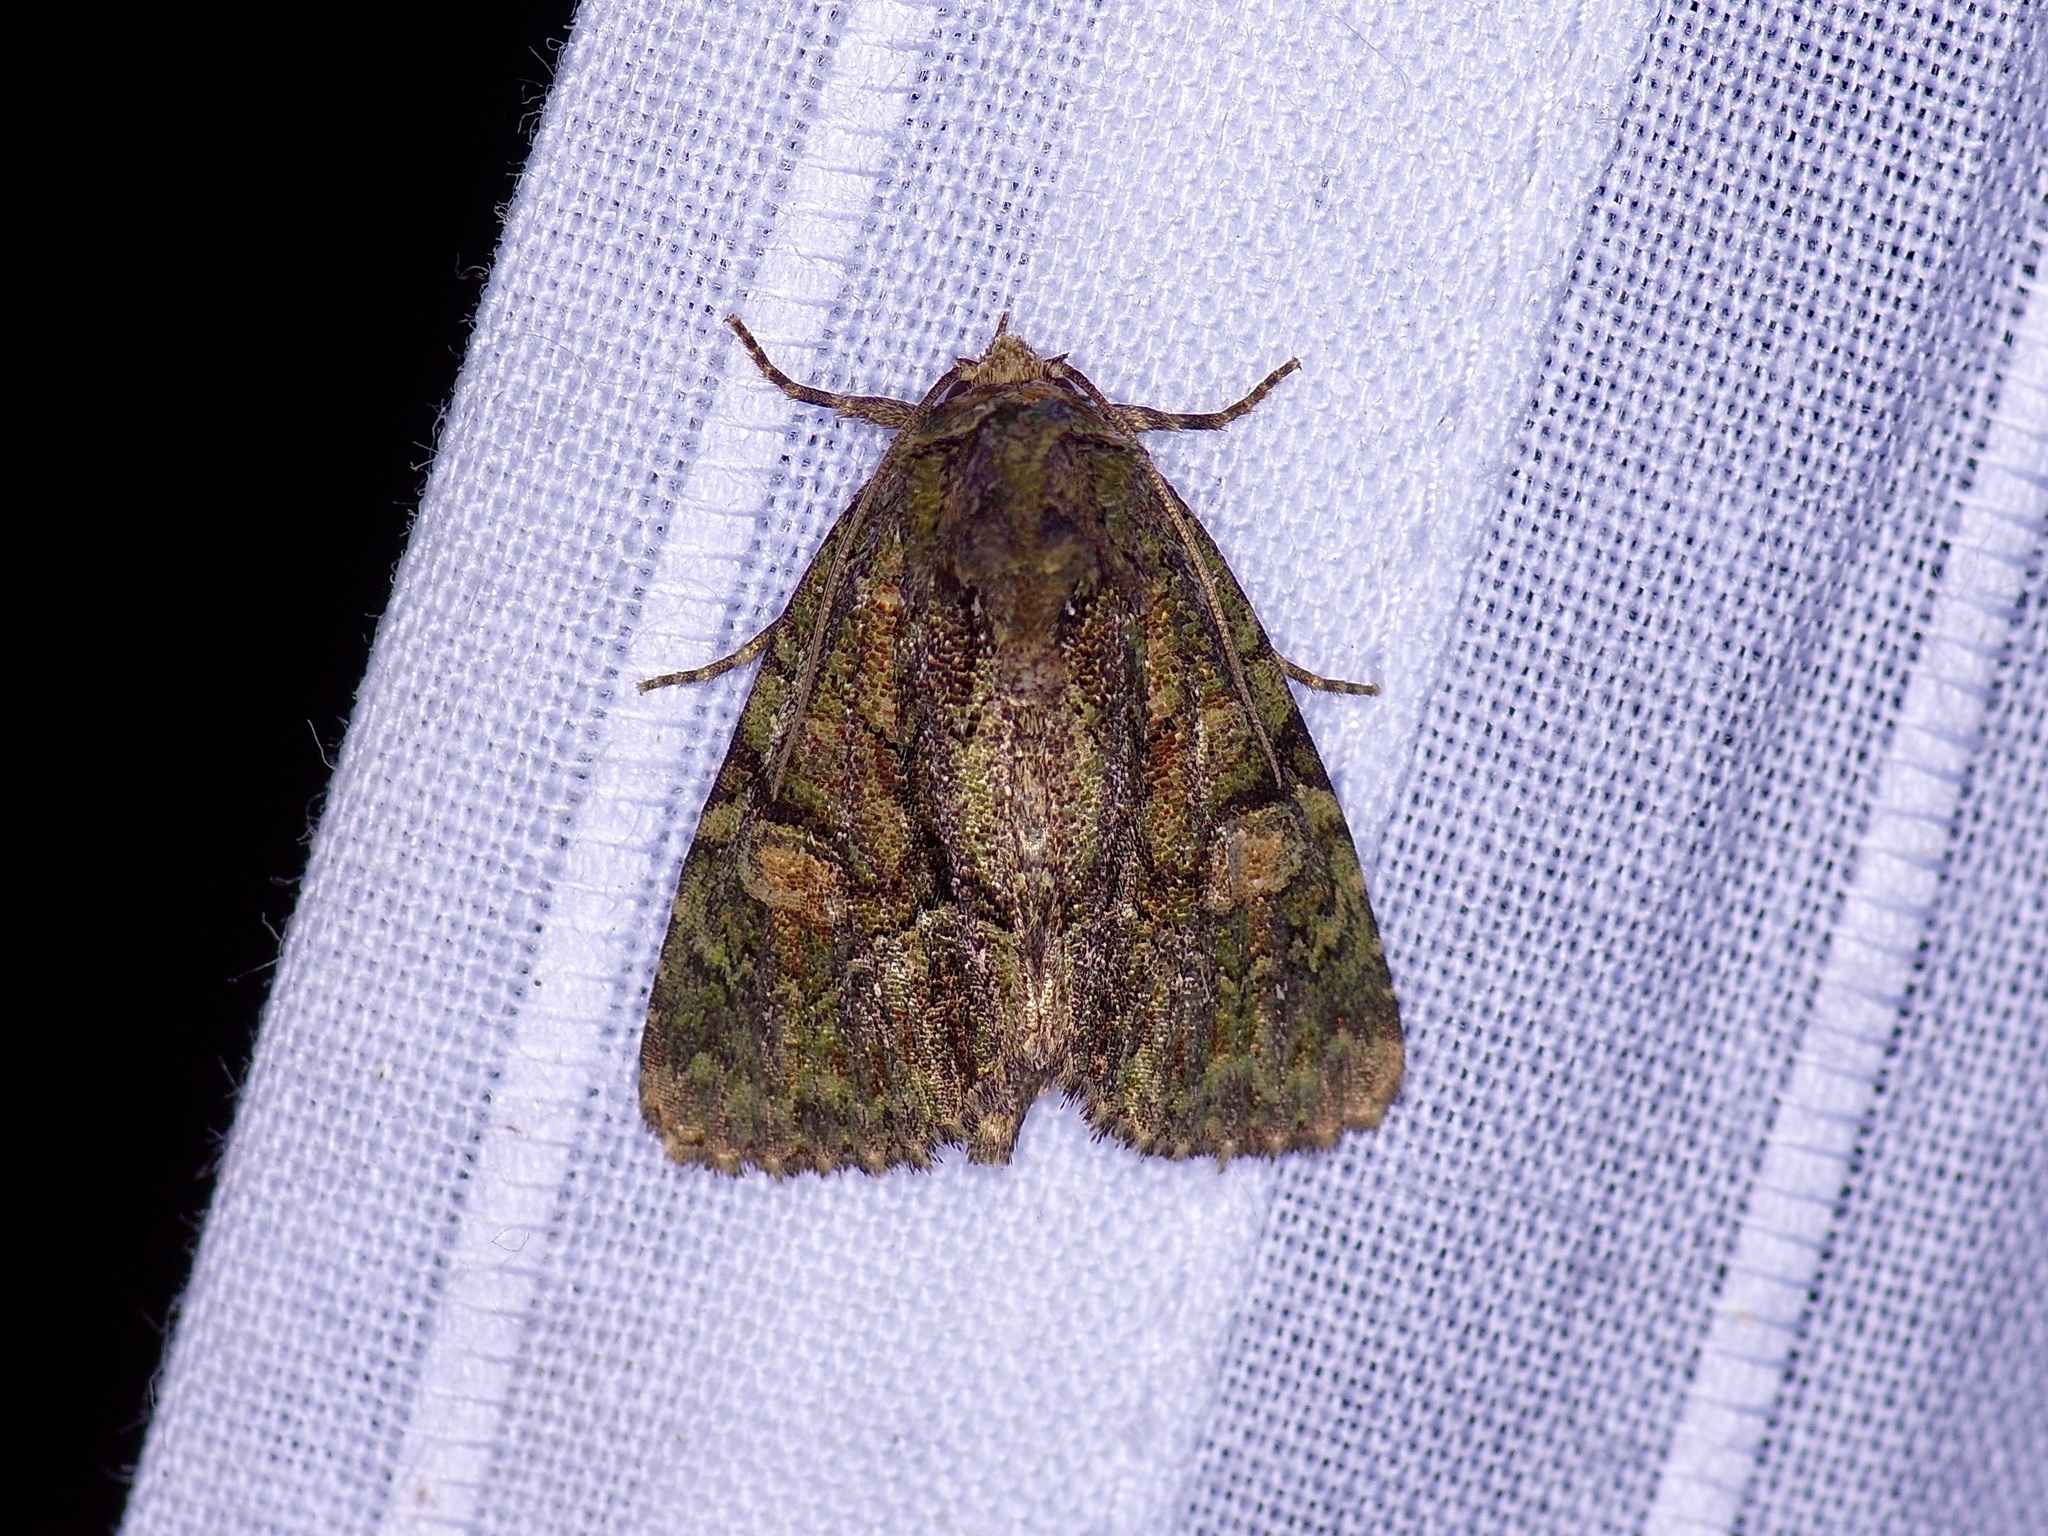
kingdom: Animalia
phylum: Arthropoda
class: Insecta
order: Lepidoptera
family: Noctuidae
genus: Phosphila
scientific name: Phosphila miselioides
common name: Spotted phosphila moth
